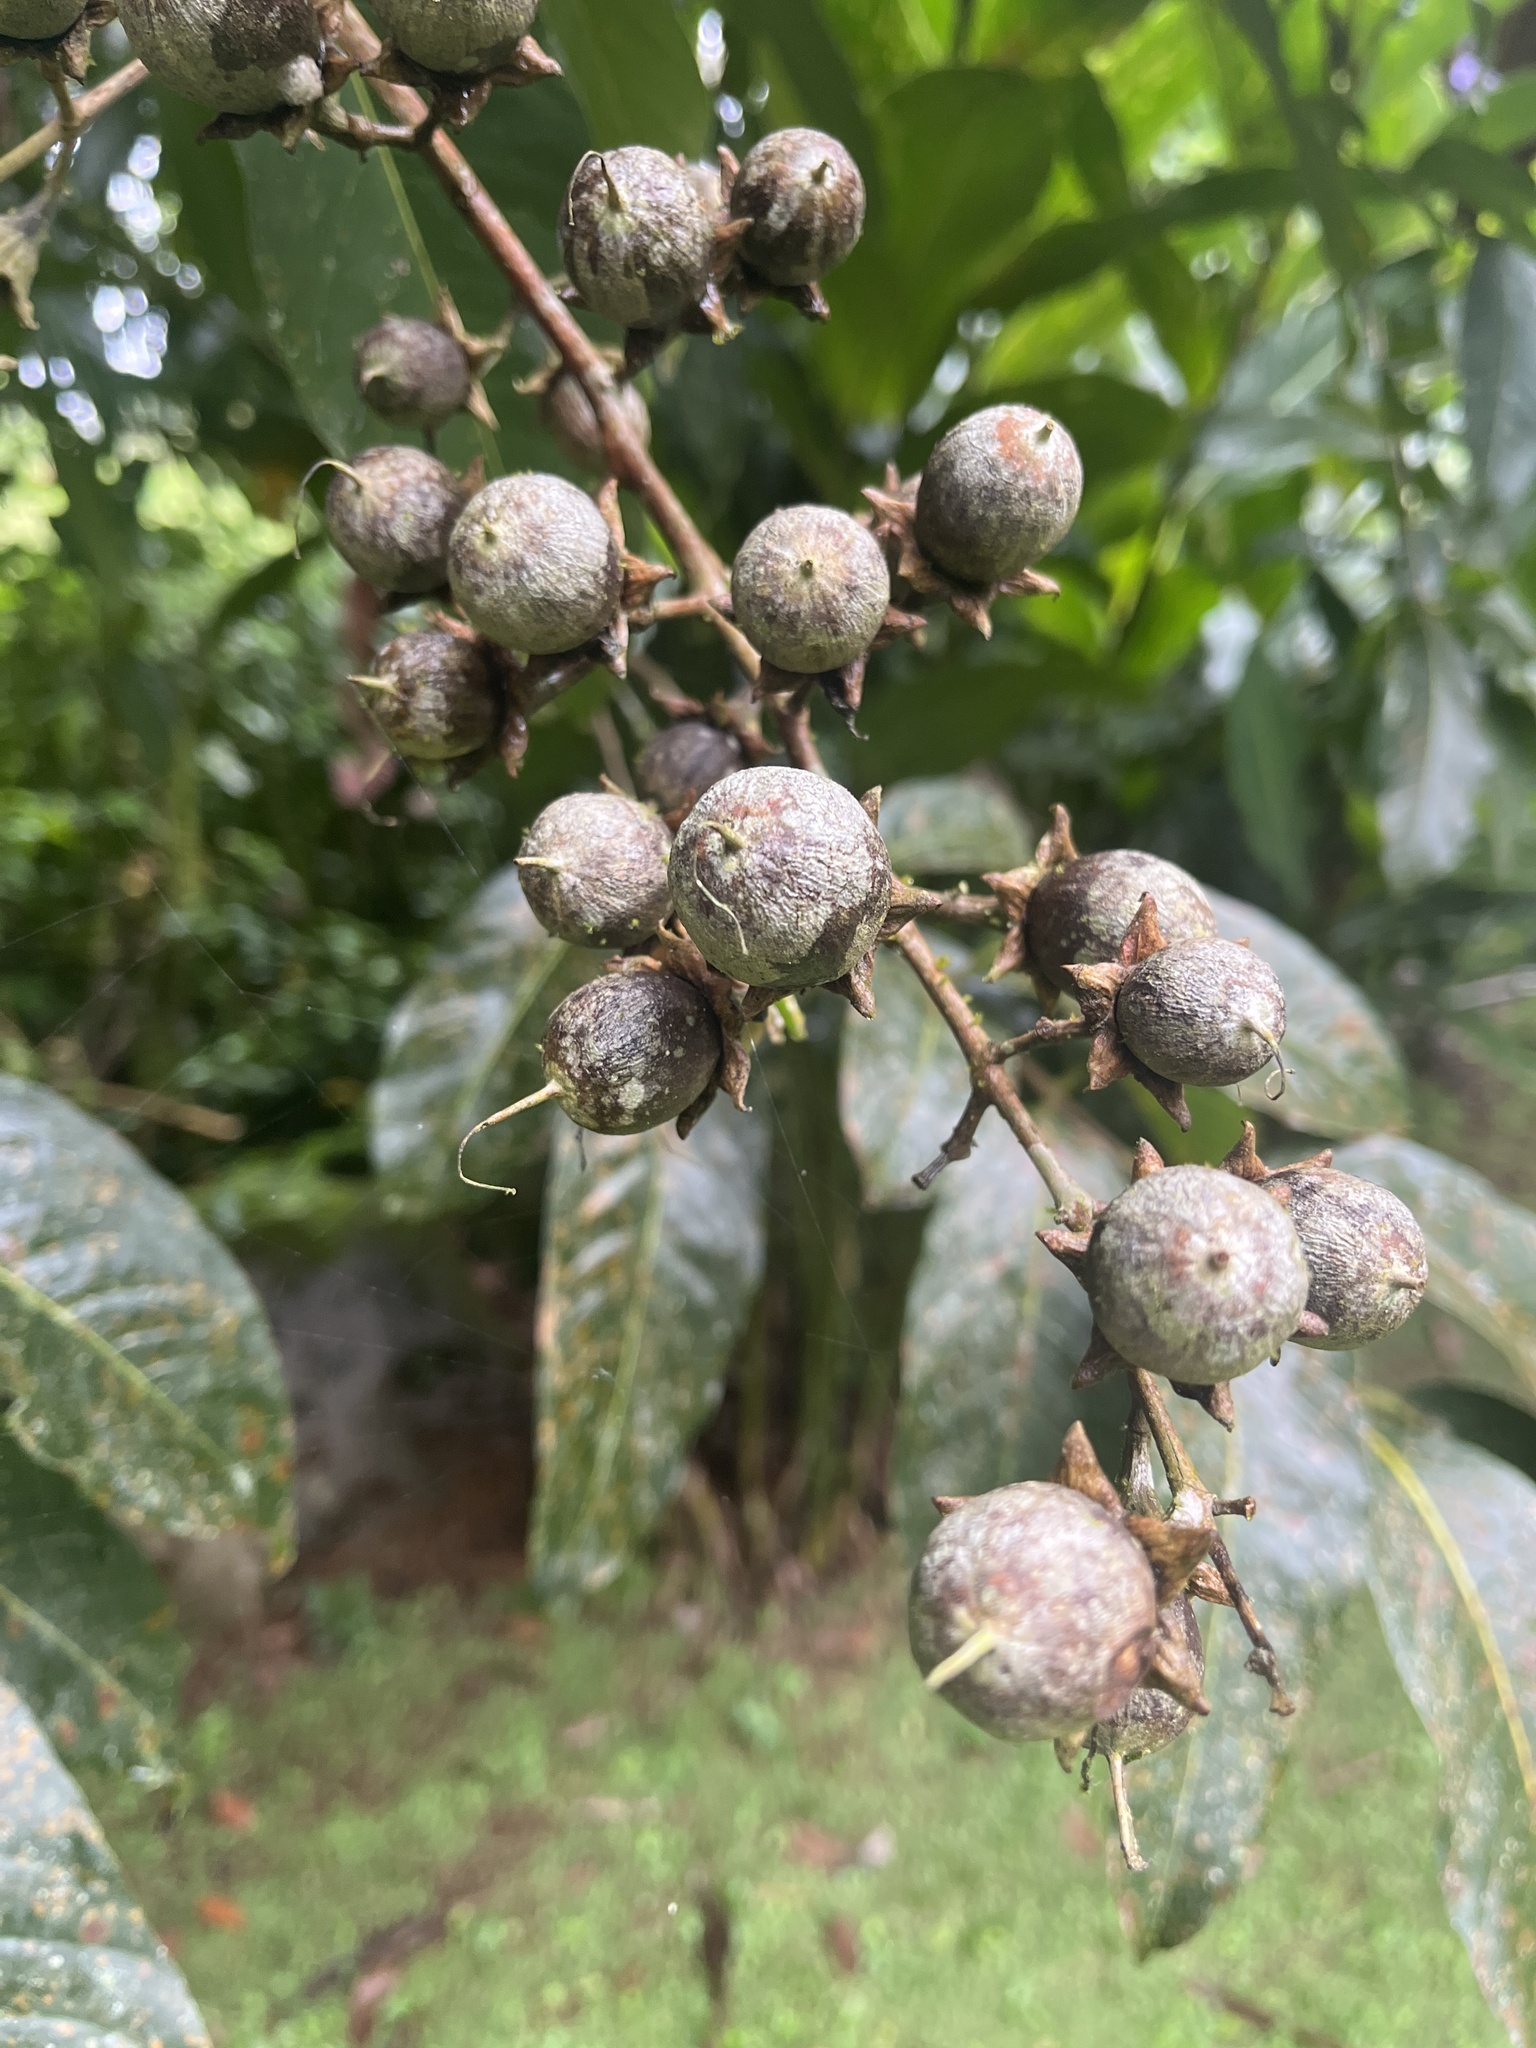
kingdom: Plantae
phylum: Tracheophyta
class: Magnoliopsida
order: Myrtales
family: Lythraceae
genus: Lagerstroemia
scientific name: Lagerstroemia speciosa
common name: Queen's crape-myrtle
